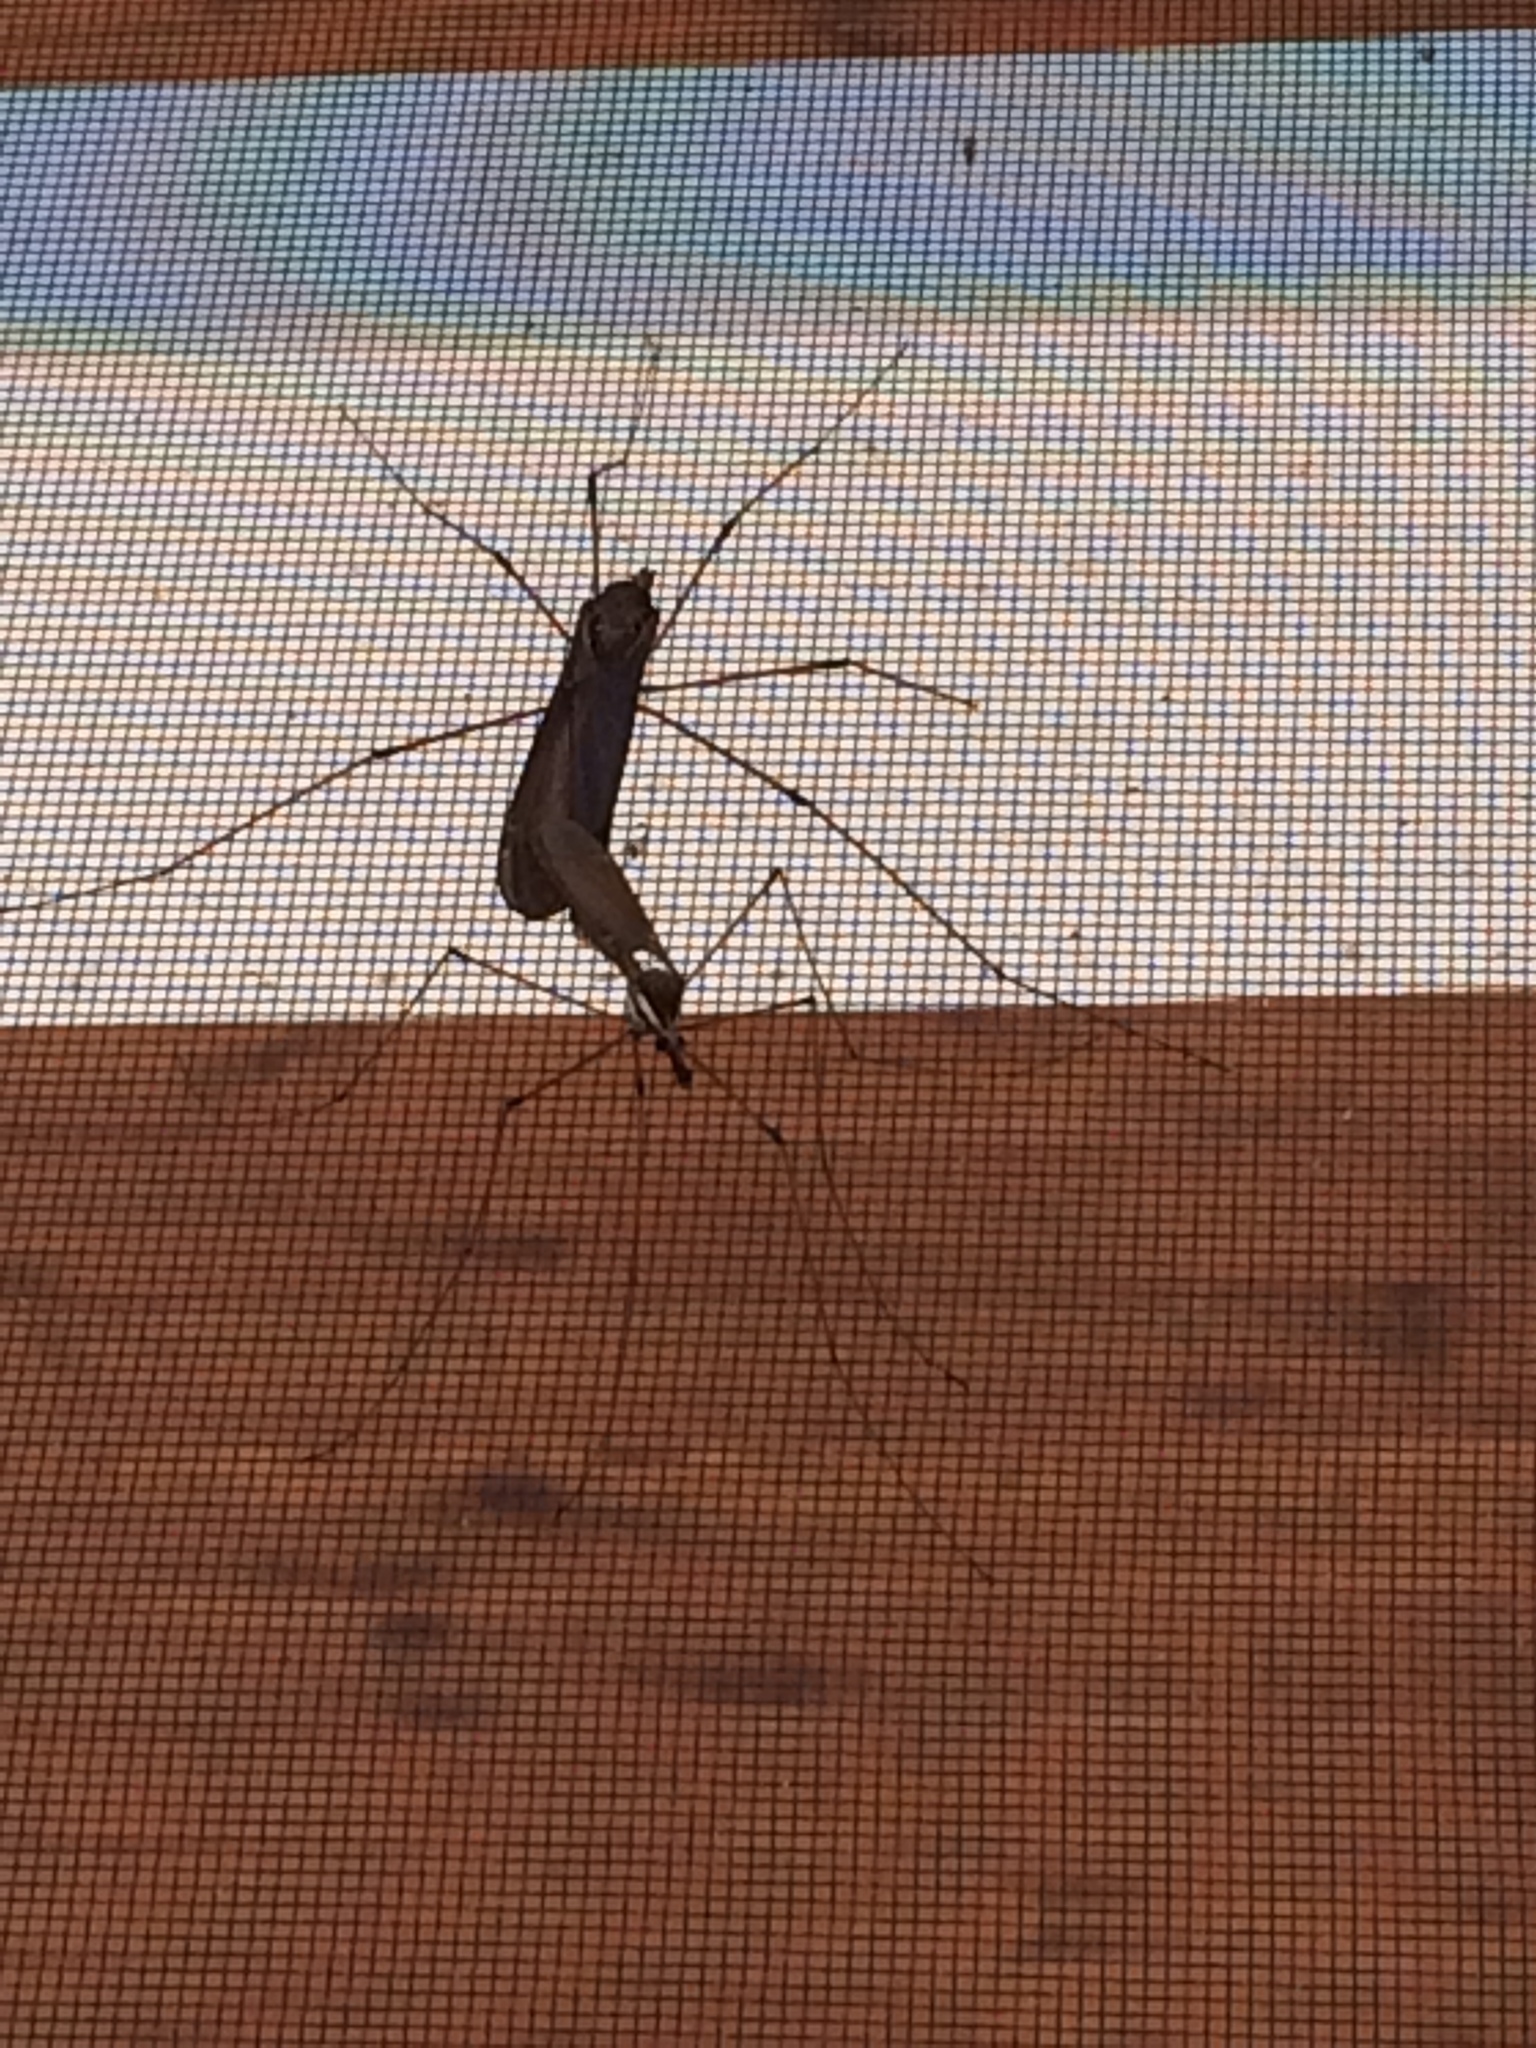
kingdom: Animalia
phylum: Arthropoda
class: Insecta
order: Diptera
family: Tipulidae
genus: Holorusia
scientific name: Holorusia hespera
